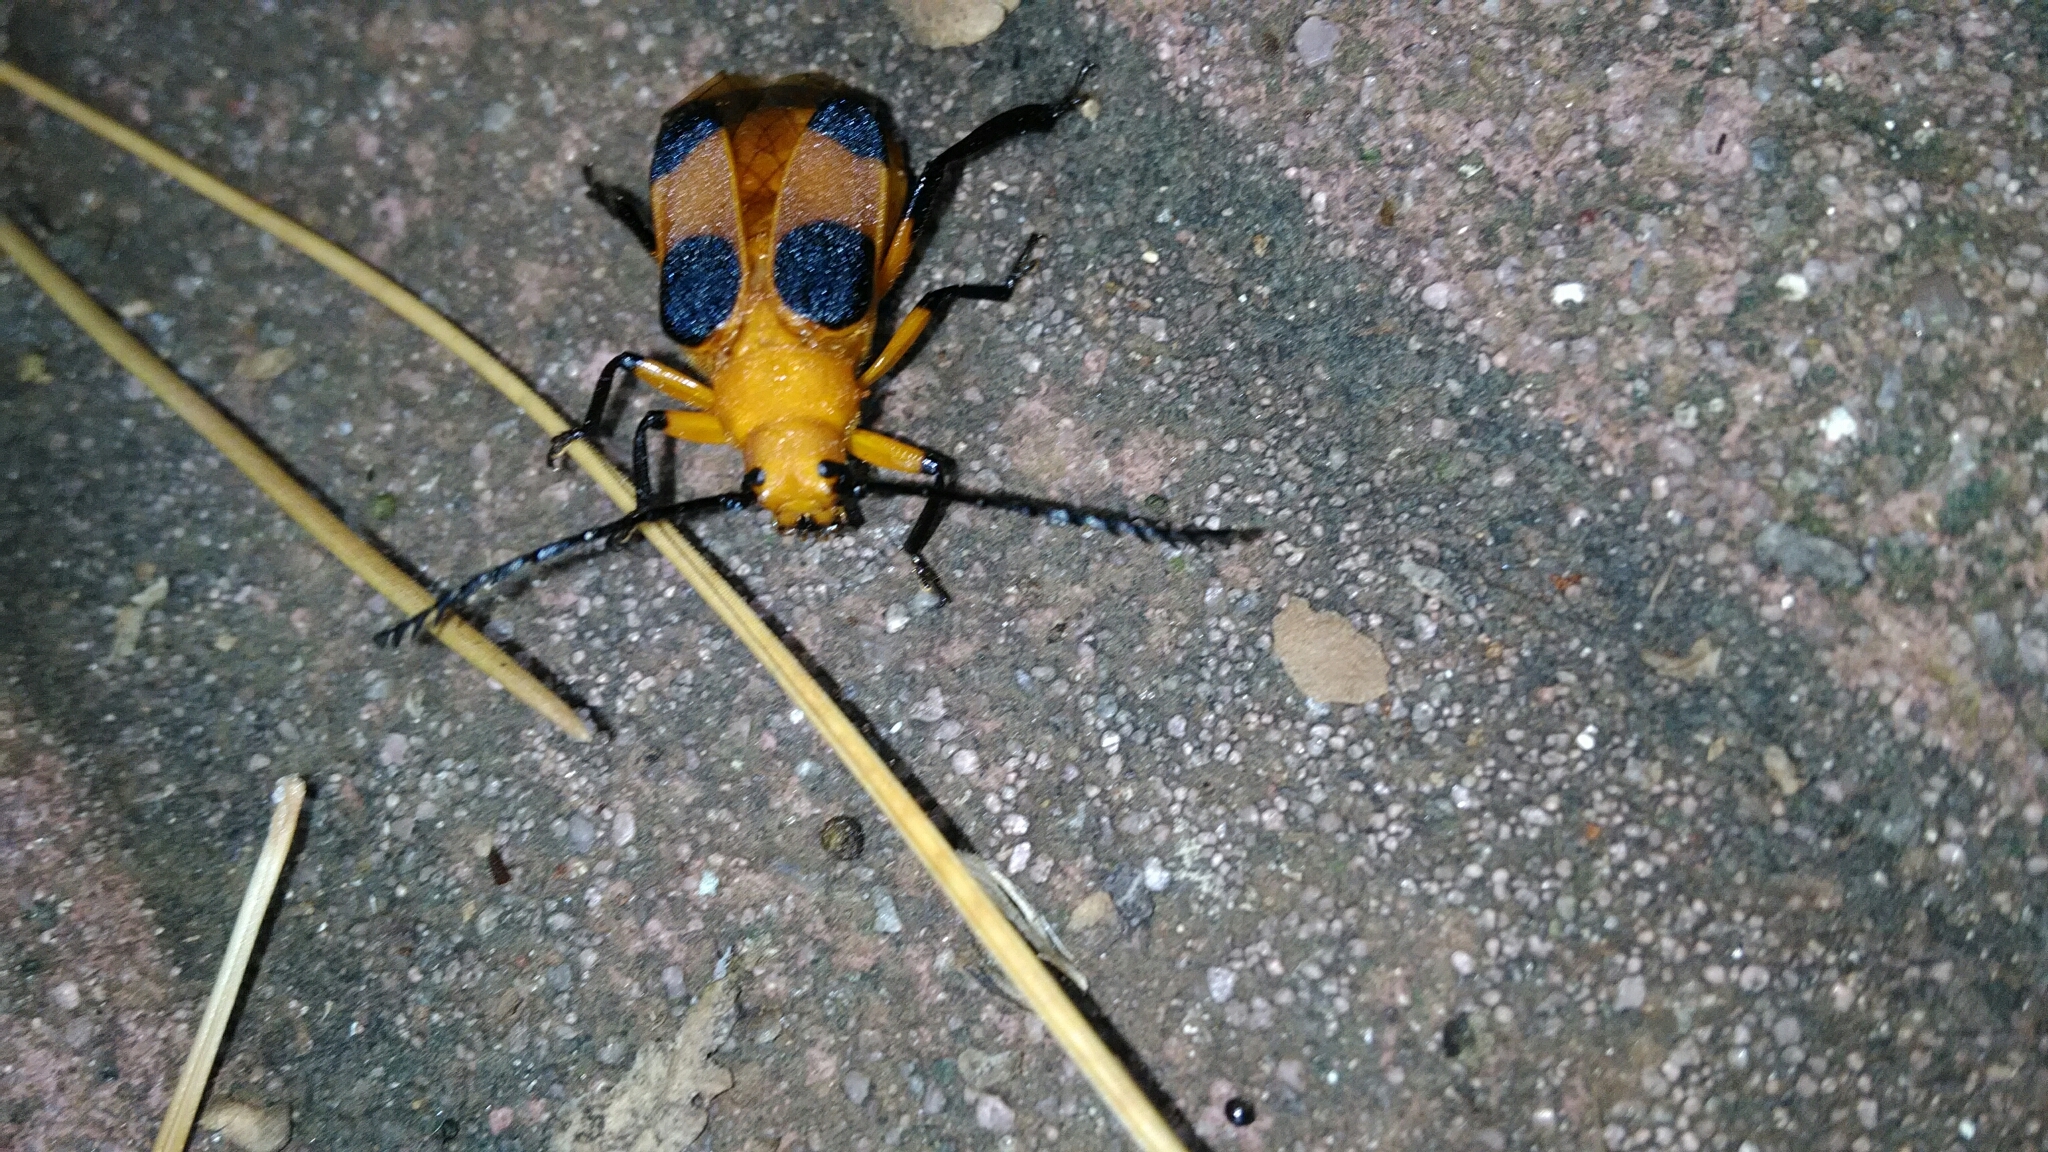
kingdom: Animalia
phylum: Arthropoda
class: Insecta
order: Coleoptera
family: Cerambycidae
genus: Myzomorphus
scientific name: Myzomorphus quadripunctatus
